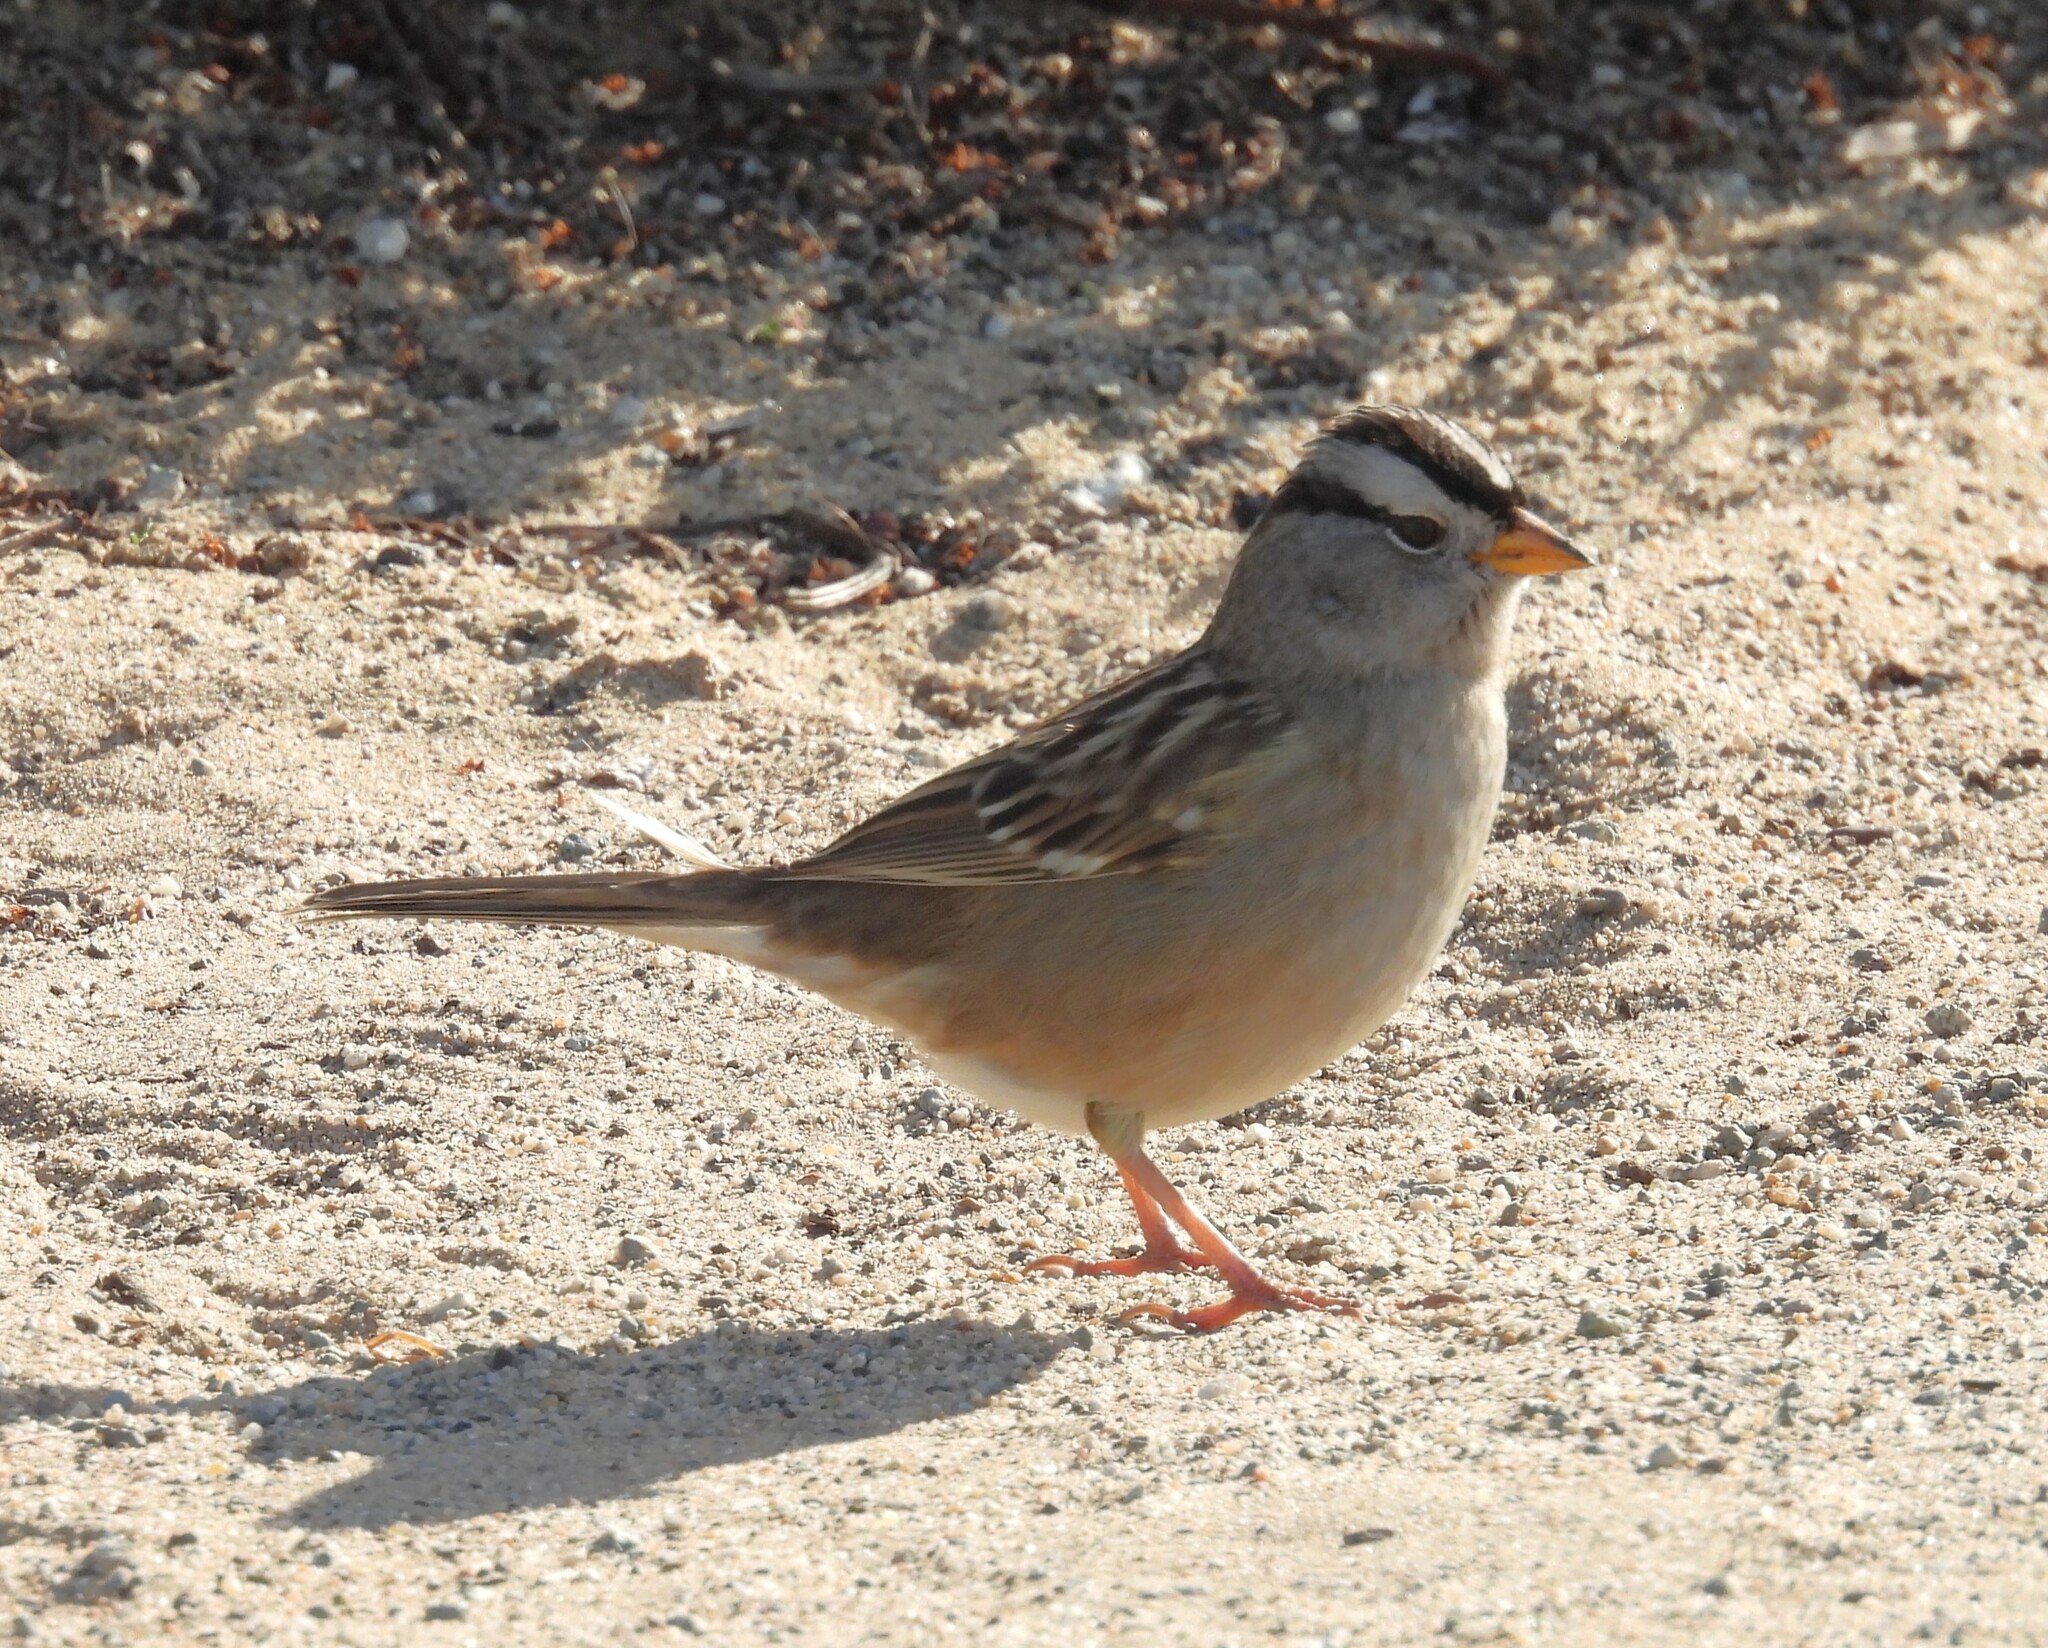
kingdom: Animalia
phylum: Chordata
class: Aves
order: Passeriformes
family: Passerellidae
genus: Zonotrichia
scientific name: Zonotrichia leucophrys
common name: White-crowned sparrow
